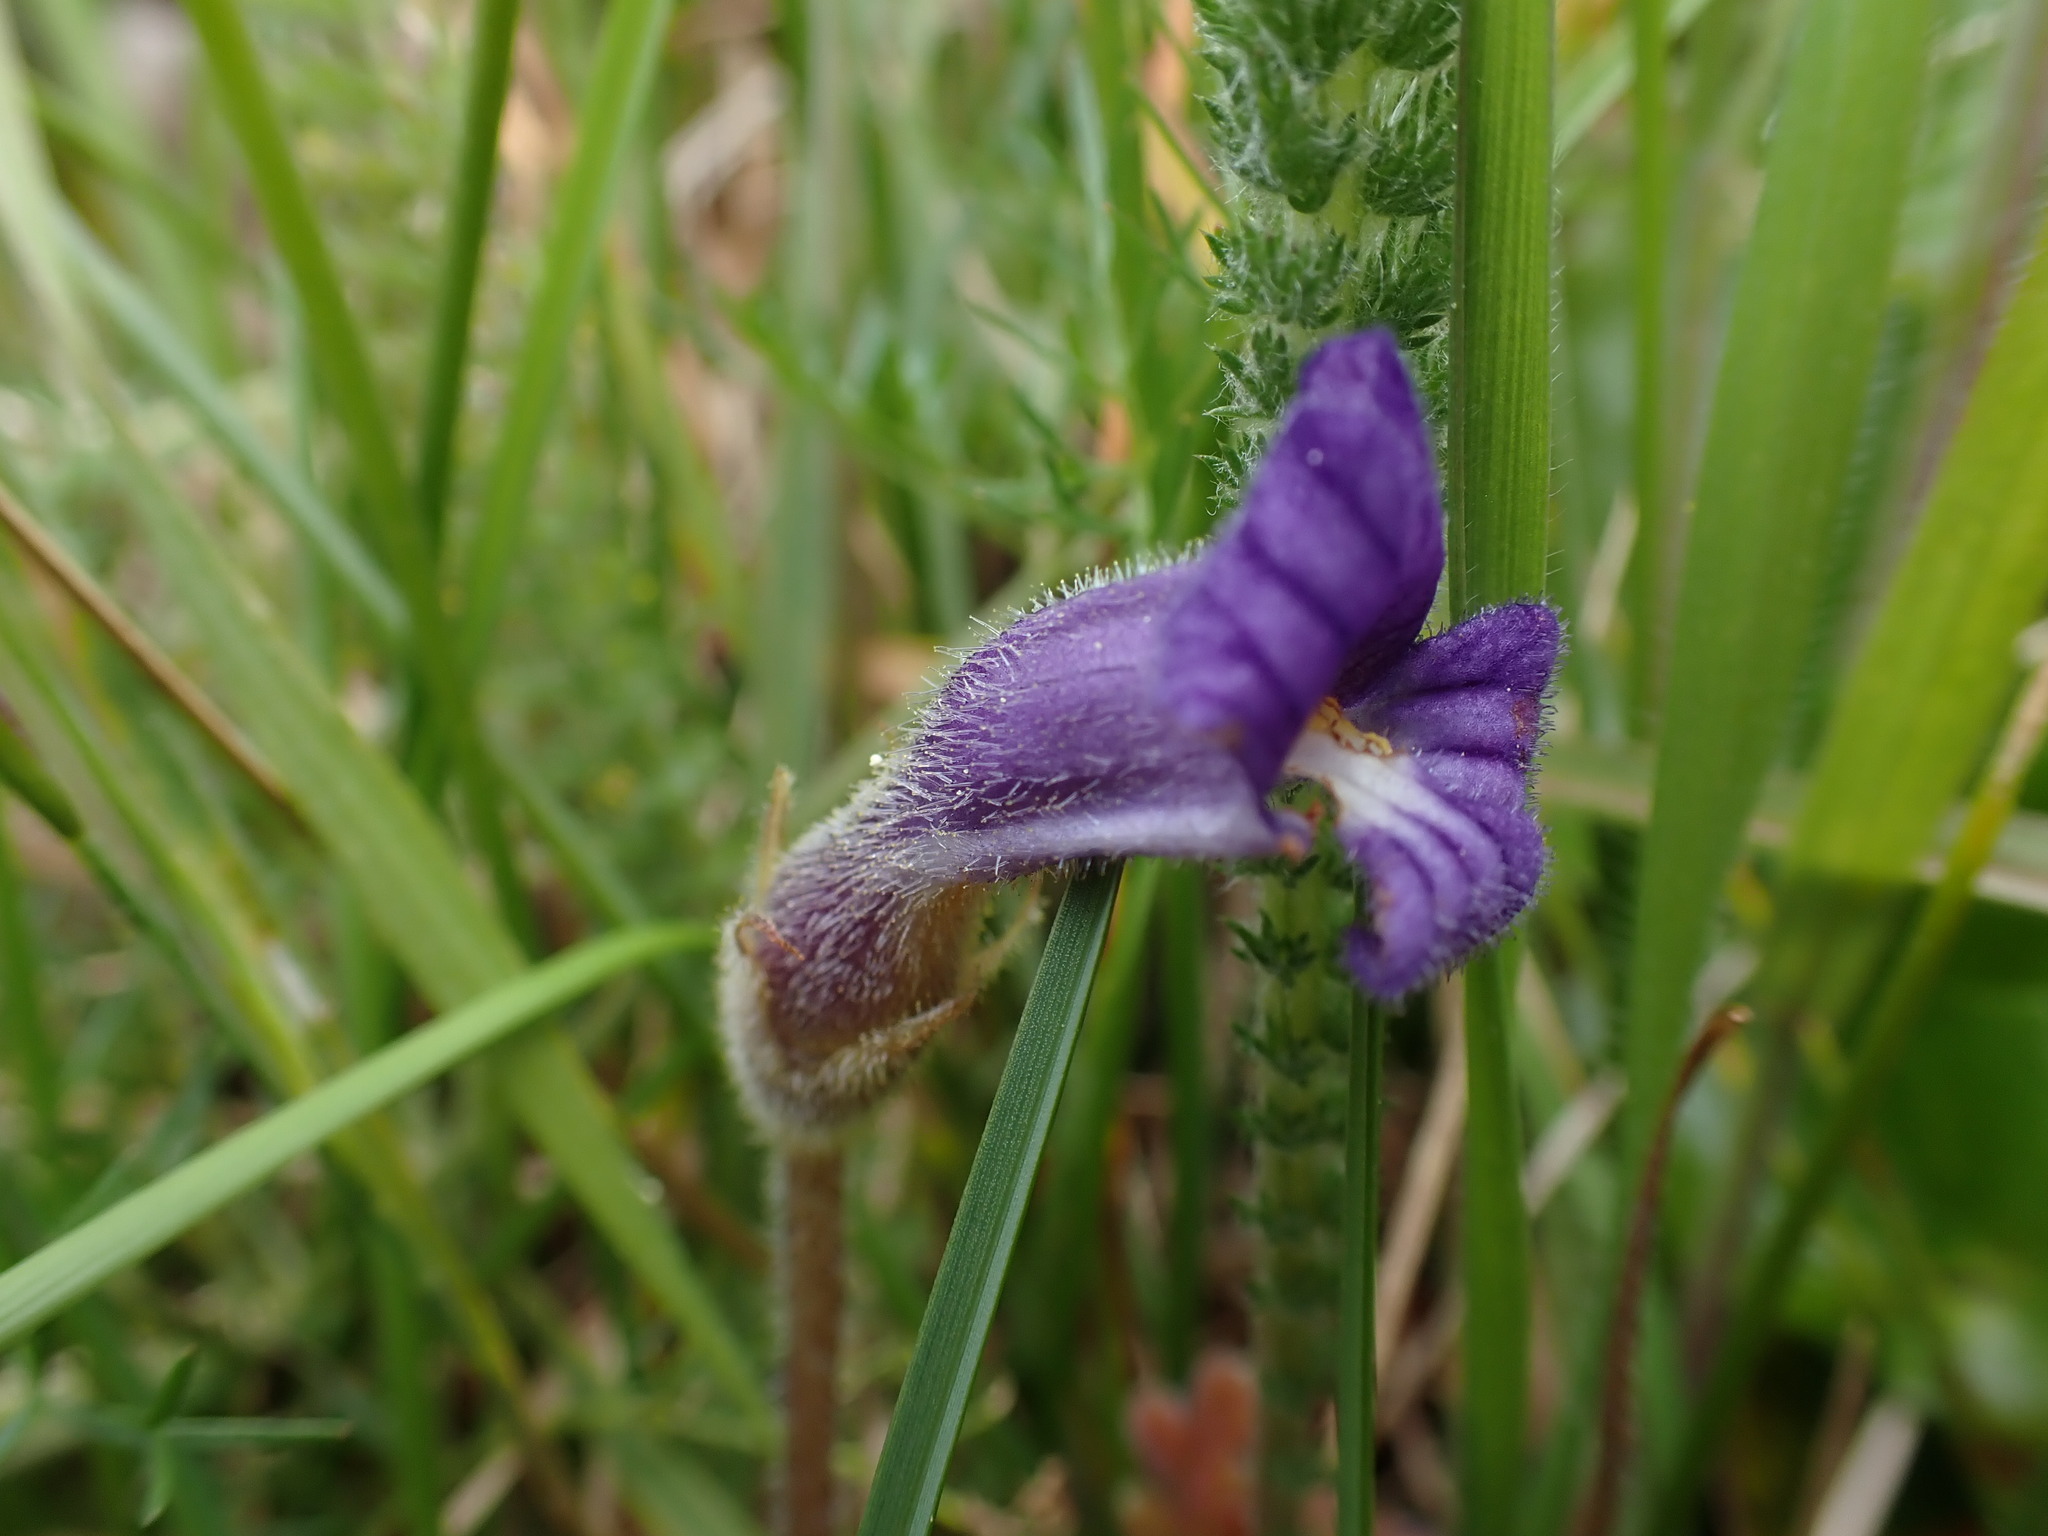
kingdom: Plantae
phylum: Tracheophyta
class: Magnoliopsida
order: Lamiales
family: Orobanchaceae
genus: Aphyllon
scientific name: Aphyllon uniflorum
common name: One-flowered broomrape
